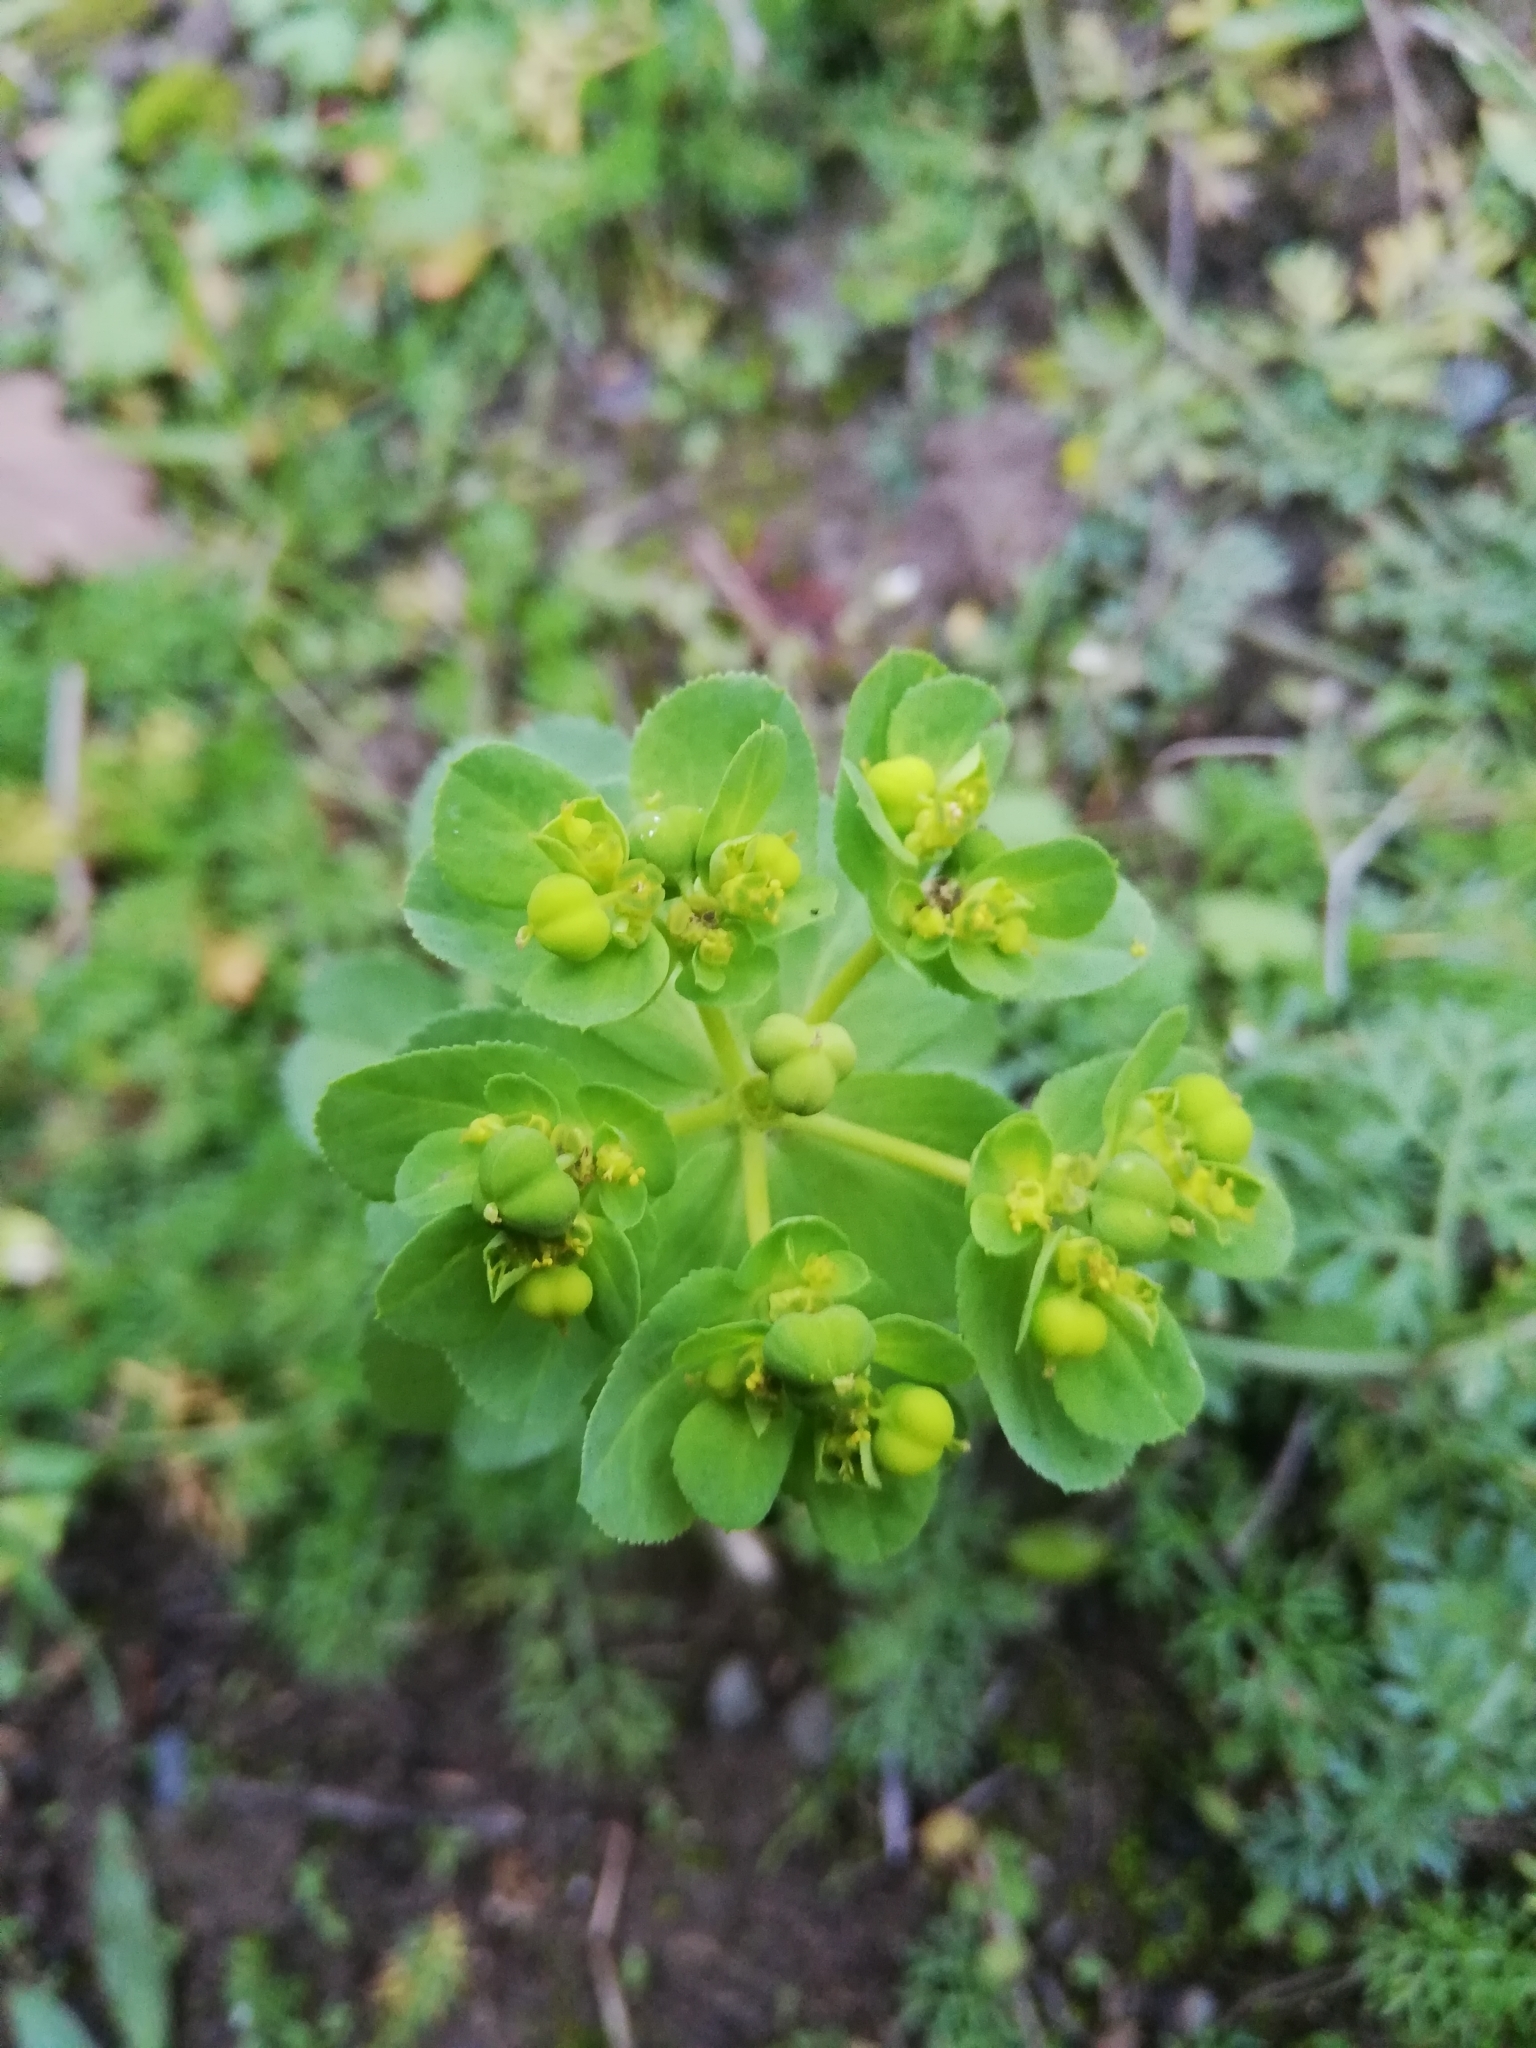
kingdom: Plantae
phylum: Tracheophyta
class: Magnoliopsida
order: Malpighiales
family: Euphorbiaceae
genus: Euphorbia
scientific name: Euphorbia helioscopia
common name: Sun spurge
